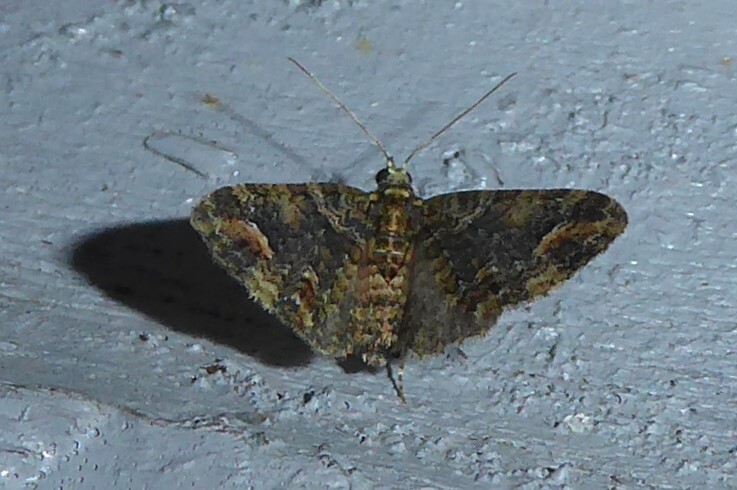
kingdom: Animalia
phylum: Arthropoda
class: Insecta
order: Lepidoptera
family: Geometridae
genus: Idaea
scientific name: Idaea mutanda
